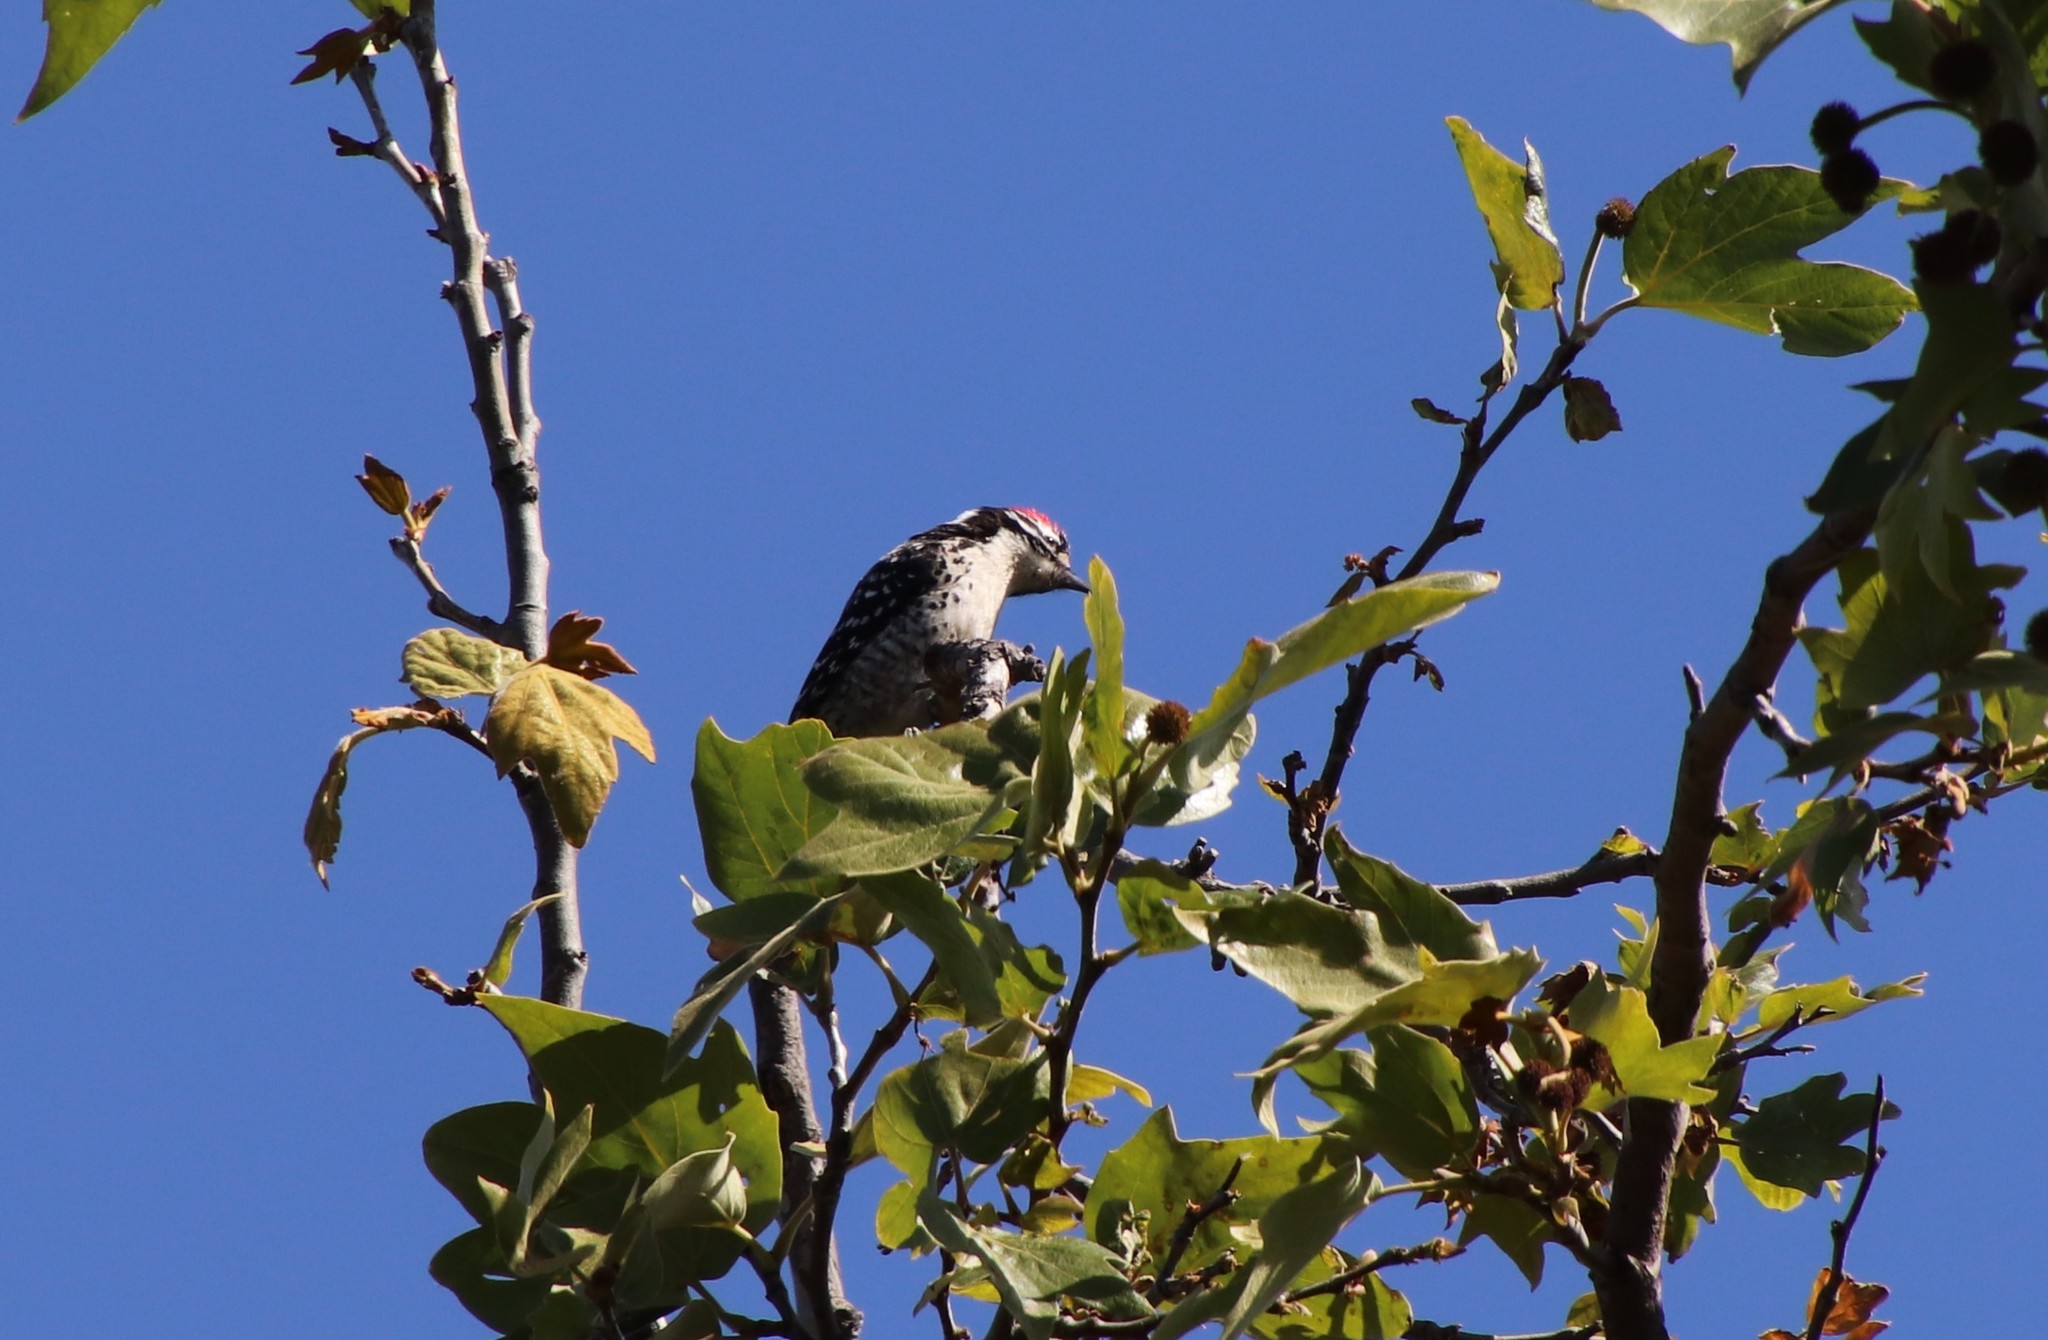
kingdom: Animalia
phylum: Chordata
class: Aves
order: Piciformes
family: Picidae
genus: Dryobates
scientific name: Dryobates nuttallii
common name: Nuttall's woodpecker
